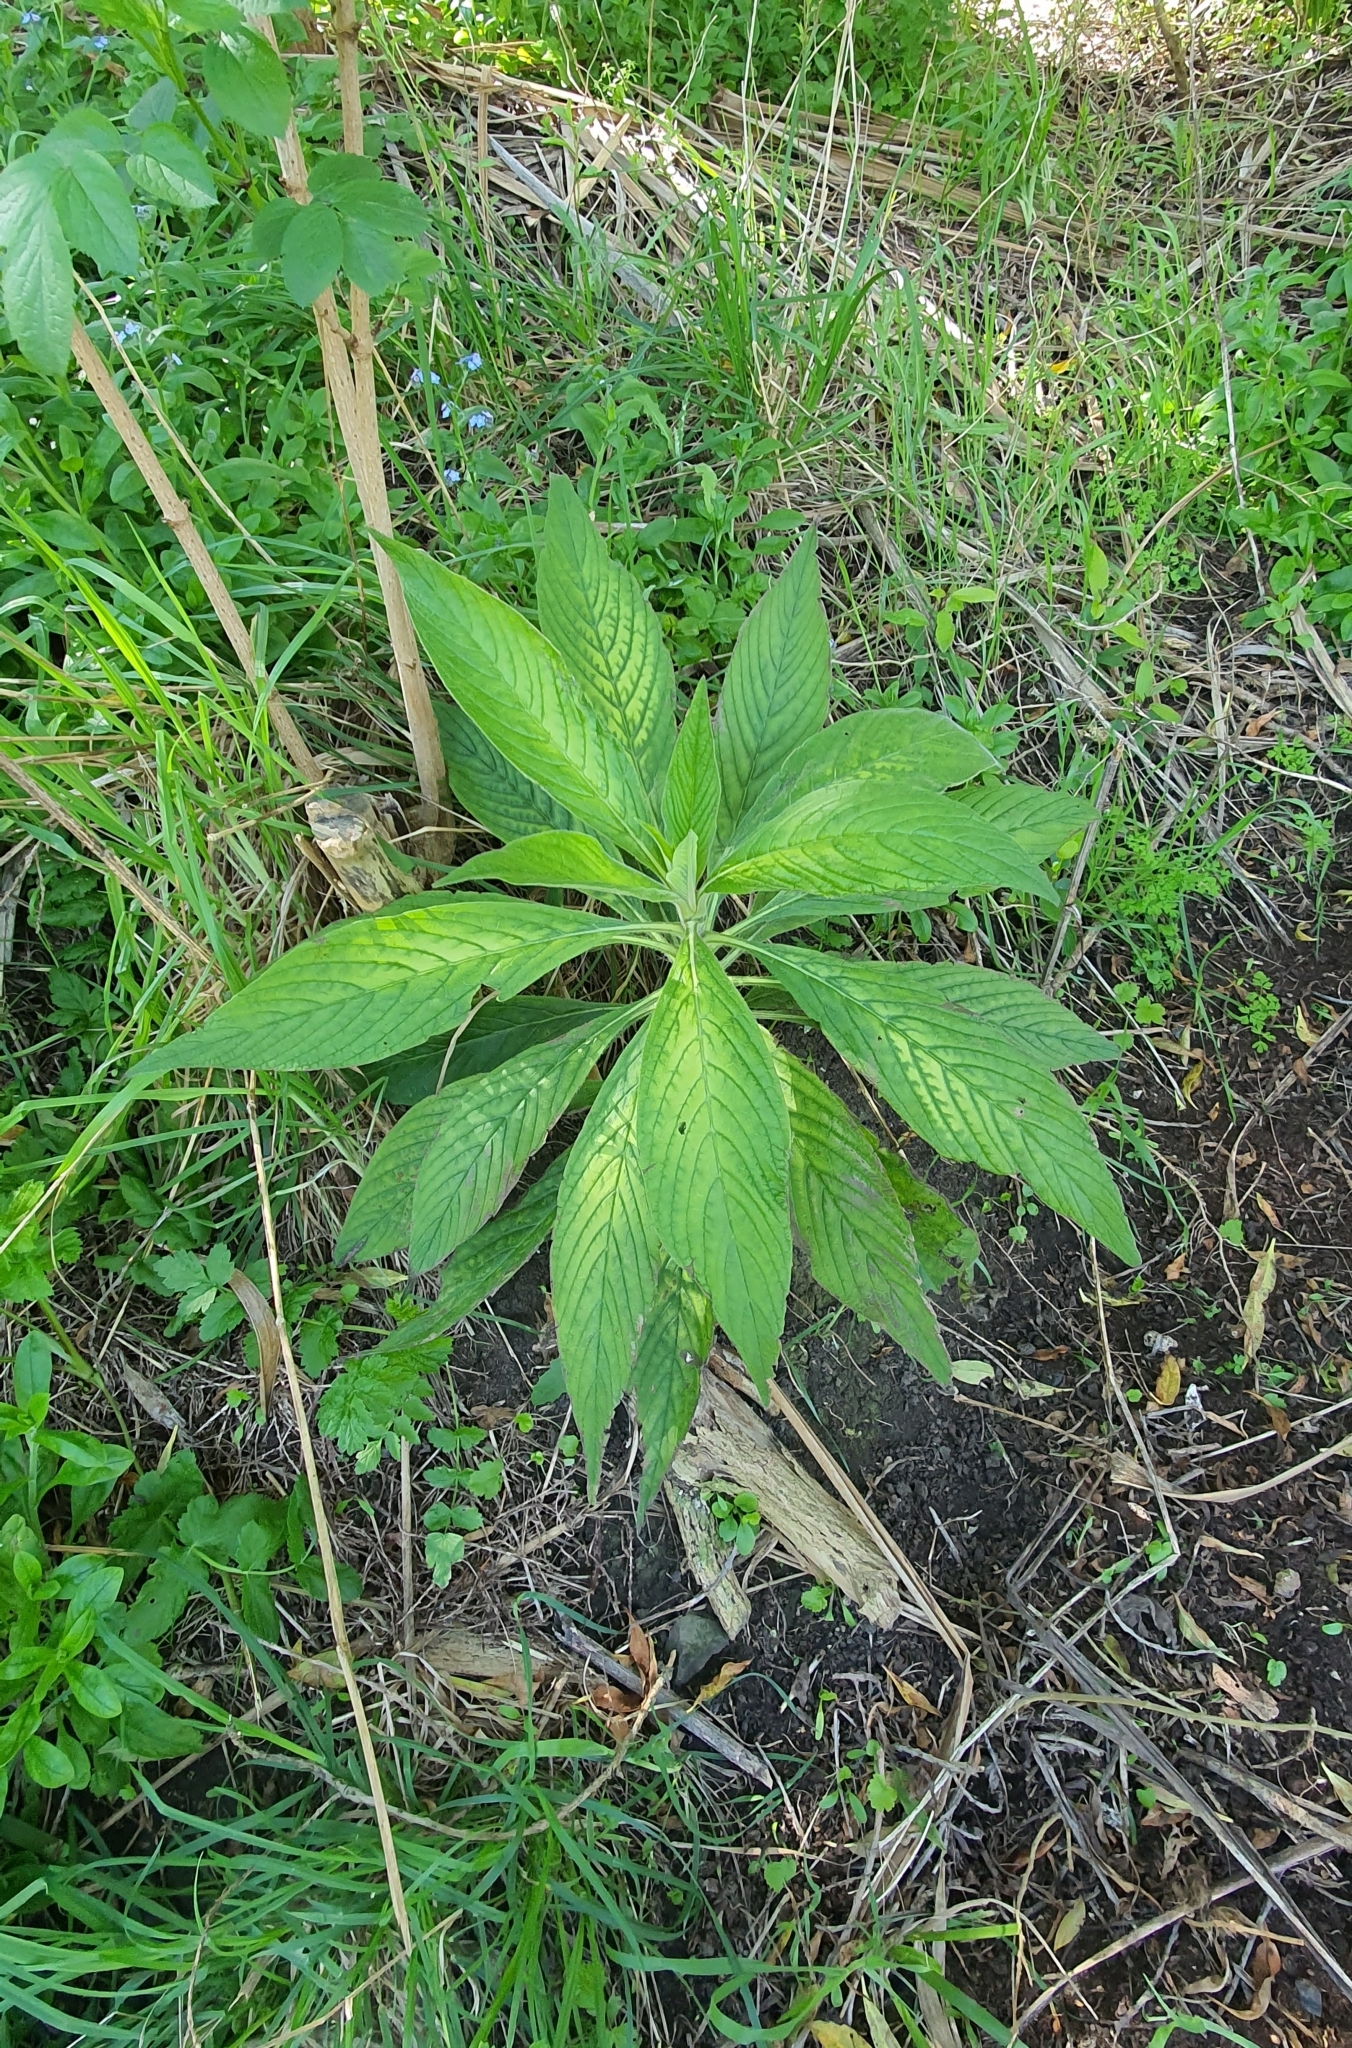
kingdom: Plantae
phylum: Tracheophyta
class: Magnoliopsida
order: Boraginales
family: Boraginaceae
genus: Echium
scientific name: Echium pininana
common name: Giant viper's-bugloss
